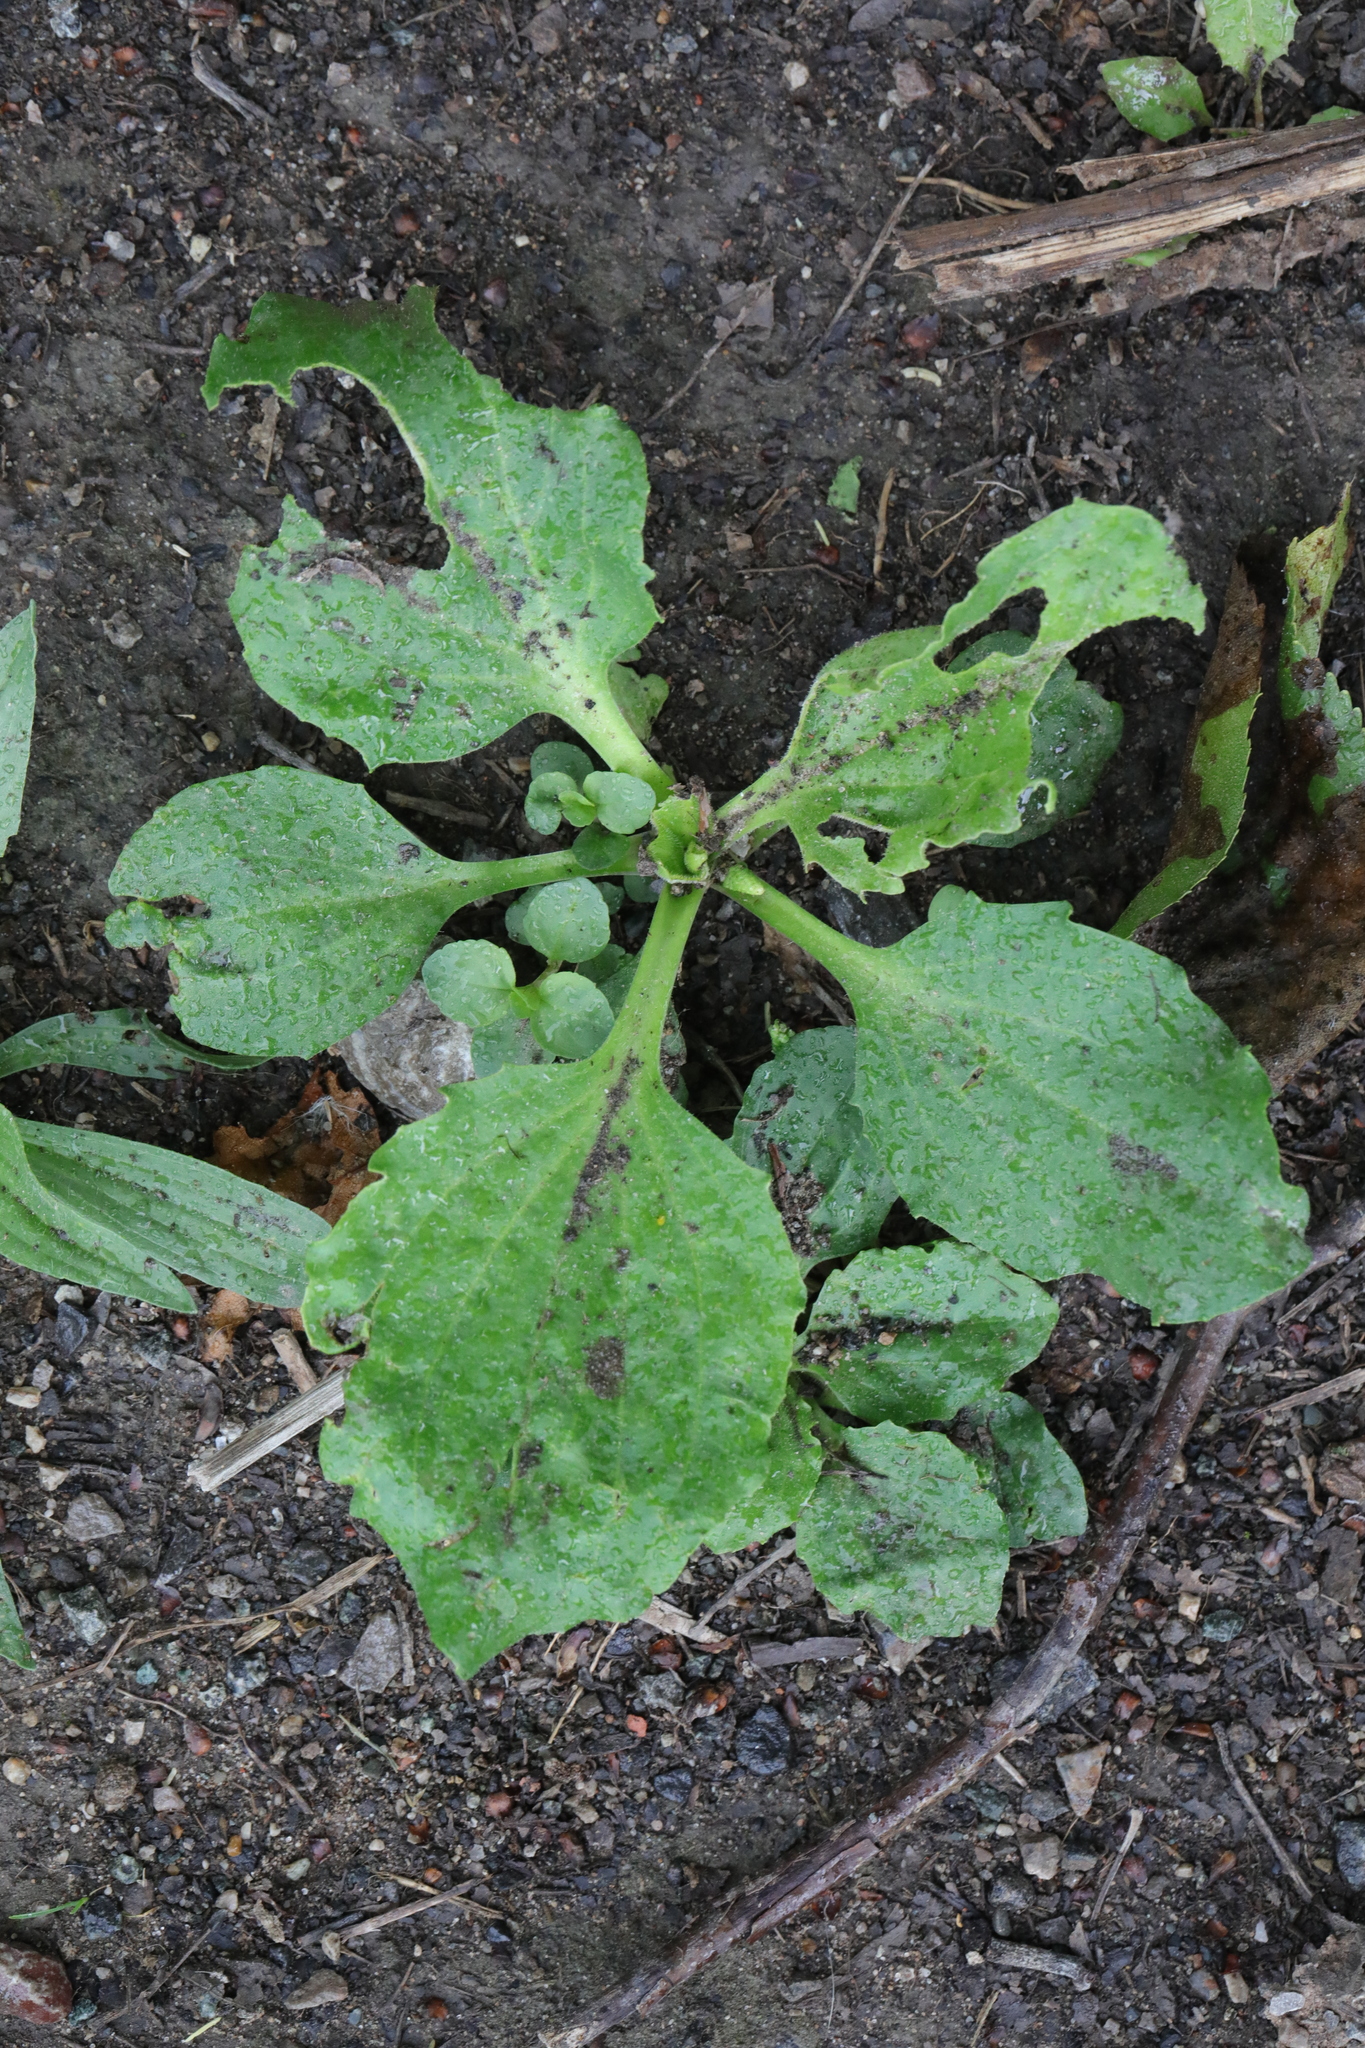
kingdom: Plantae
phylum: Tracheophyta
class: Magnoliopsida
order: Lamiales
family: Plantaginaceae
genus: Plantago
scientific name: Plantago major
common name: Common plantain
